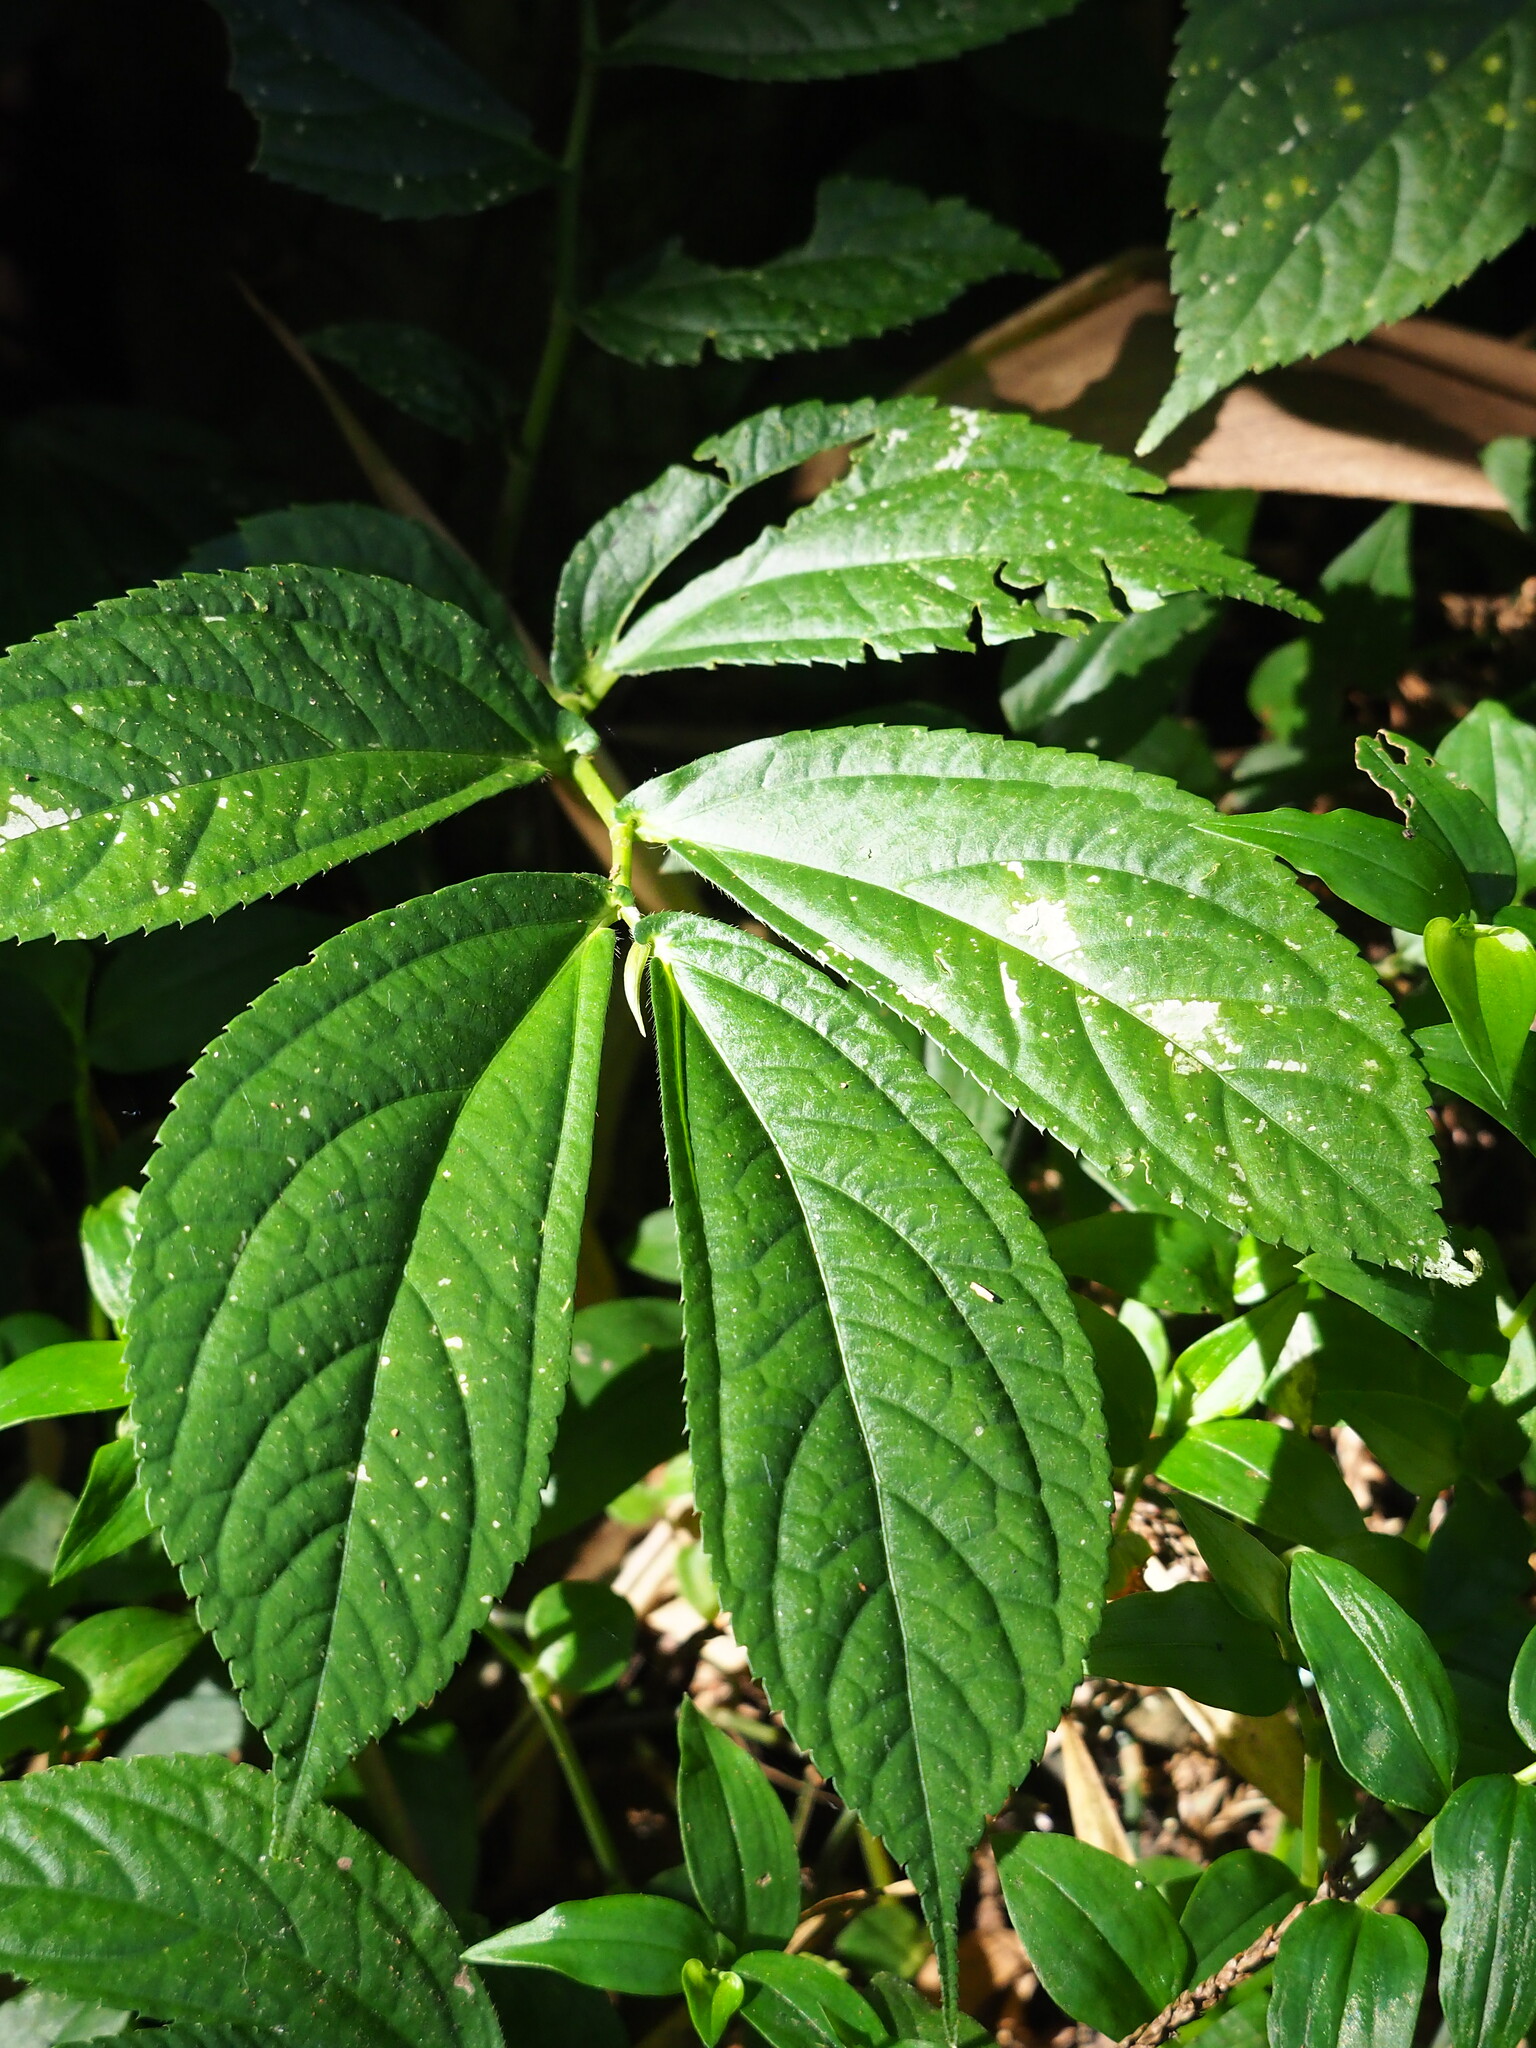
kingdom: Plantae
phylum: Tracheophyta
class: Magnoliopsida
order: Rosales
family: Urticaceae
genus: Elatostema
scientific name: Elatostema platyphyllum
